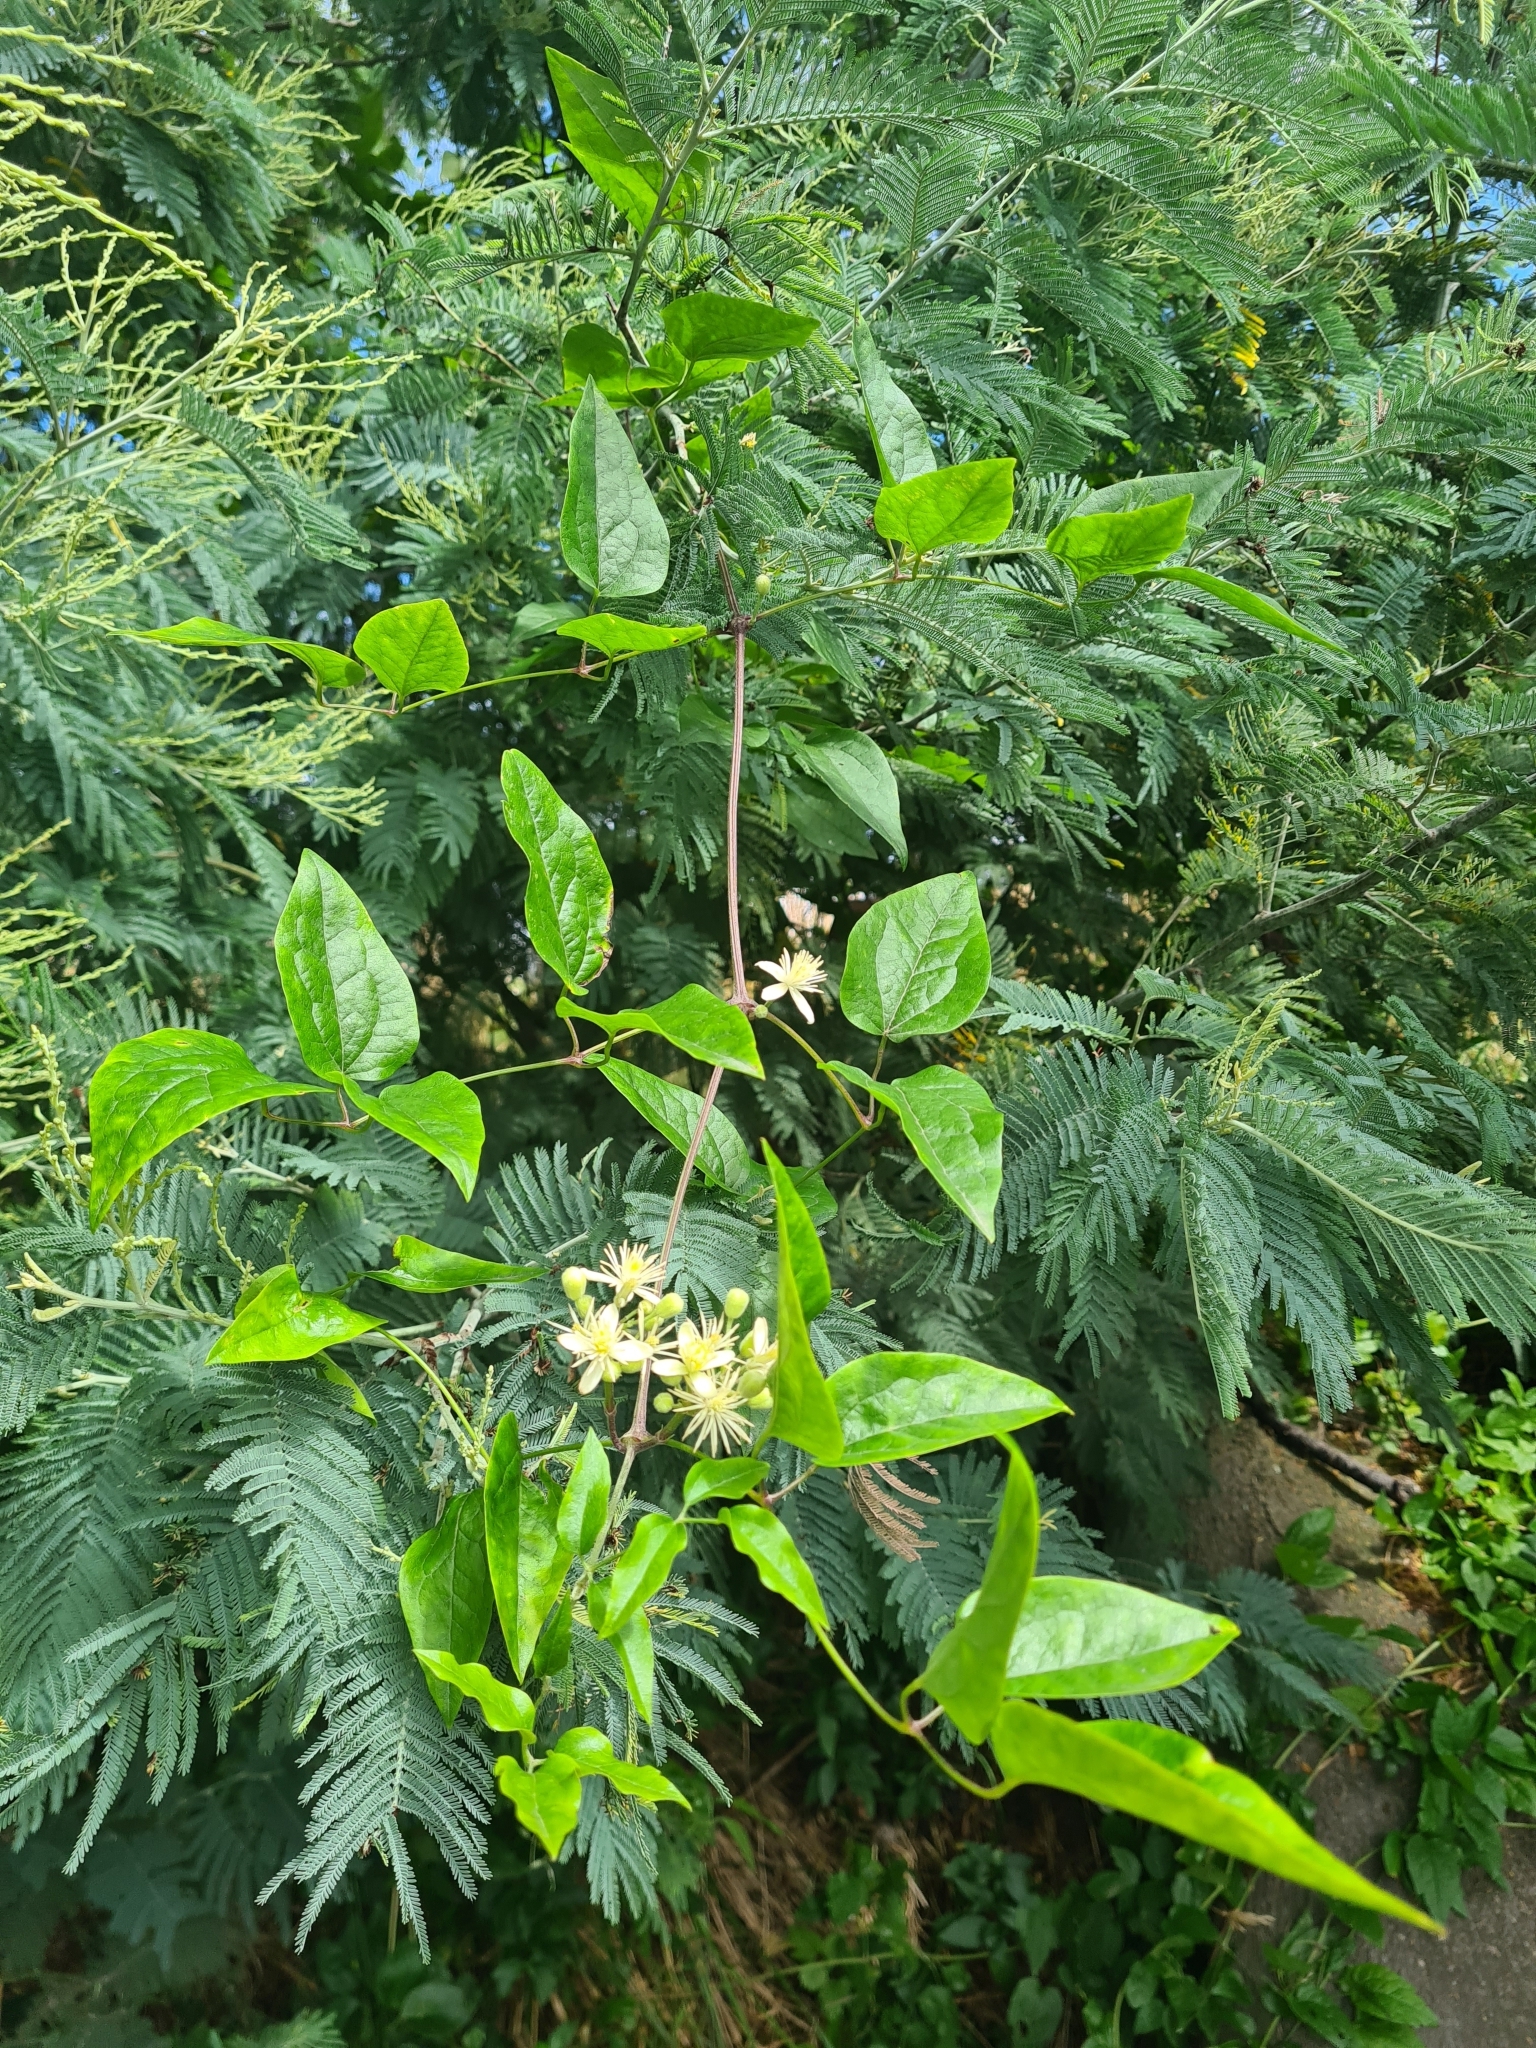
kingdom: Plantae
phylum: Tracheophyta
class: Magnoliopsida
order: Ranunculales
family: Ranunculaceae
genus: Clematis
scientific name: Clematis vitalba
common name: Evergreen clematis
